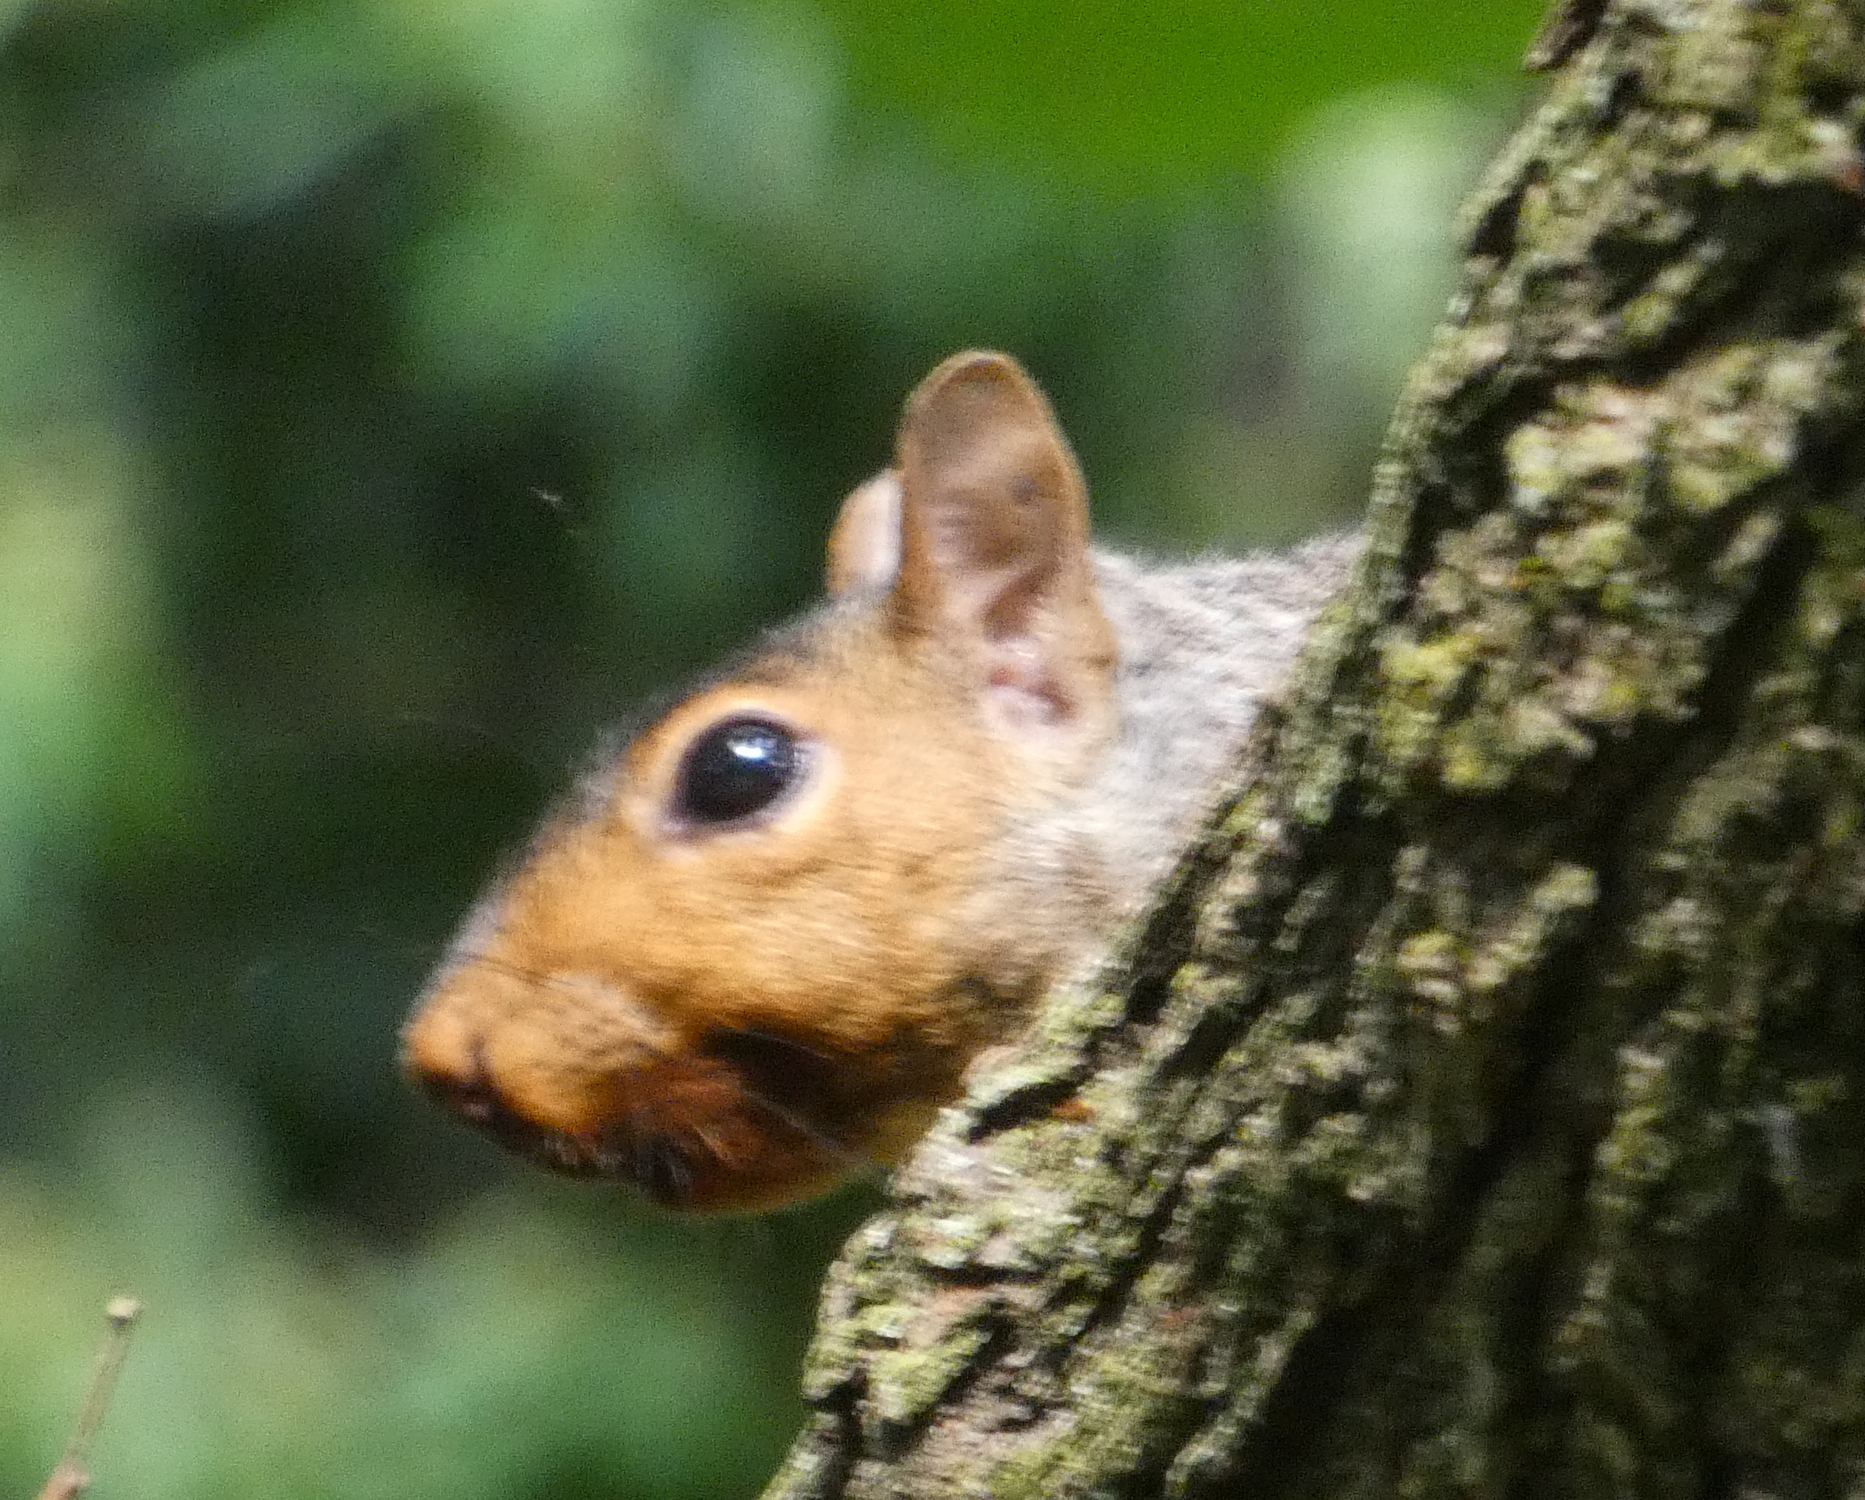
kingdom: Animalia
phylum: Chordata
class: Mammalia
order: Rodentia
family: Sciuridae
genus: Sciurus
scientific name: Sciurus carolinensis
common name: Eastern gray squirrel
